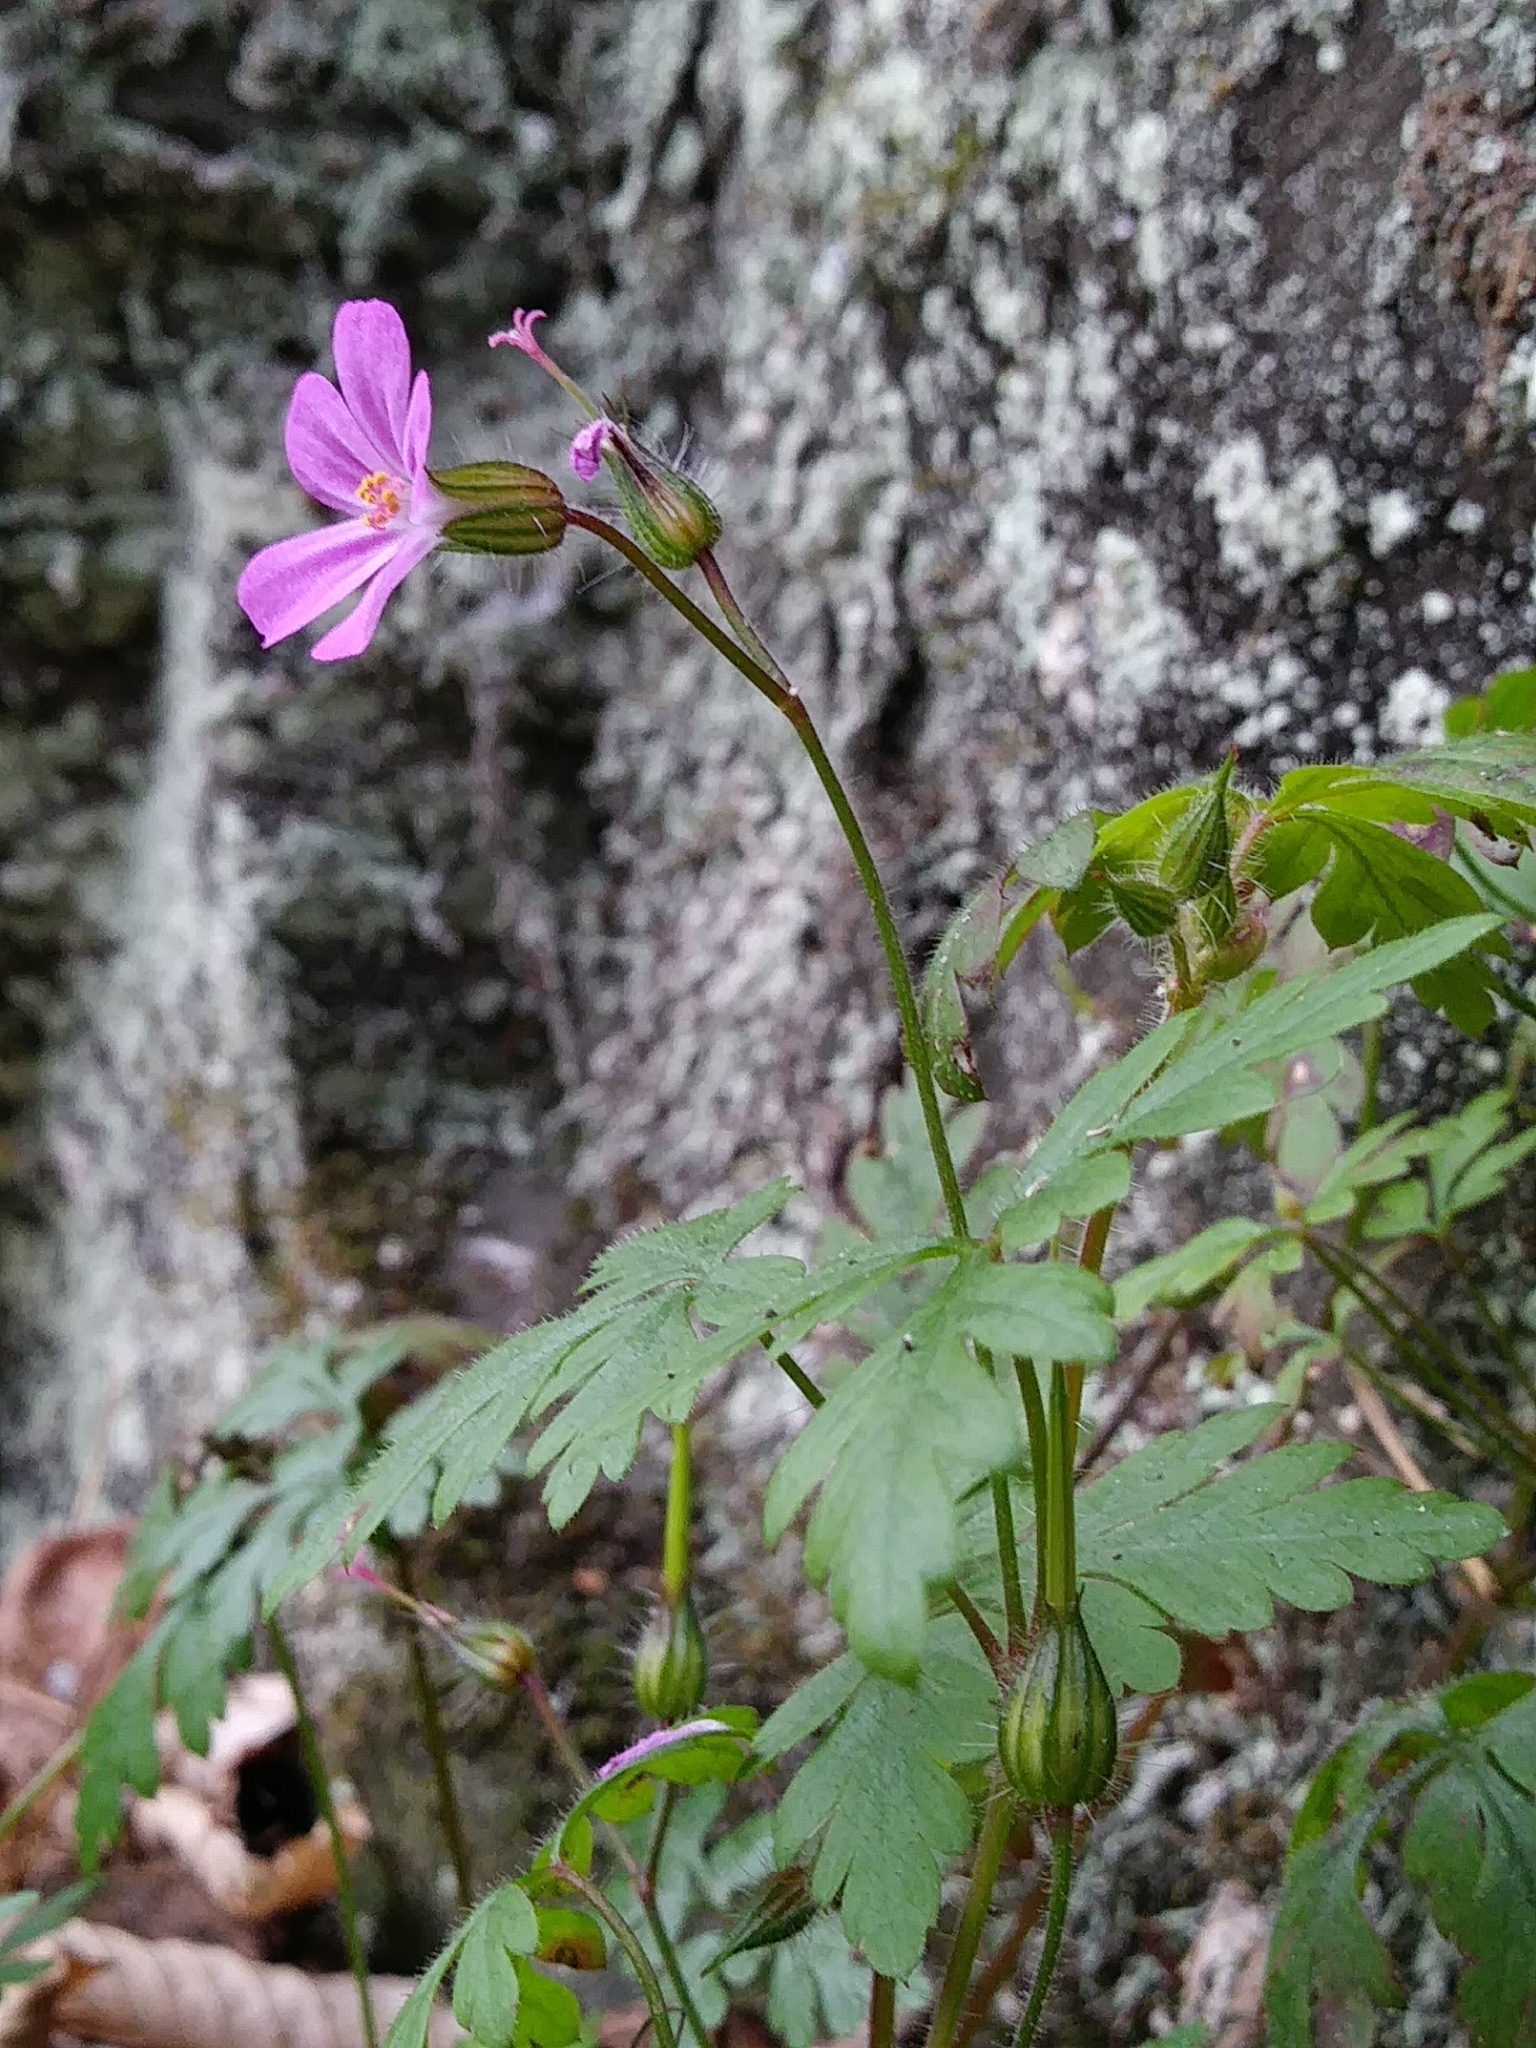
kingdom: Plantae
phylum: Tracheophyta
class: Magnoliopsida
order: Geraniales
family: Geraniaceae
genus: Geranium
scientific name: Geranium robertianum
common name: Herb-robert
